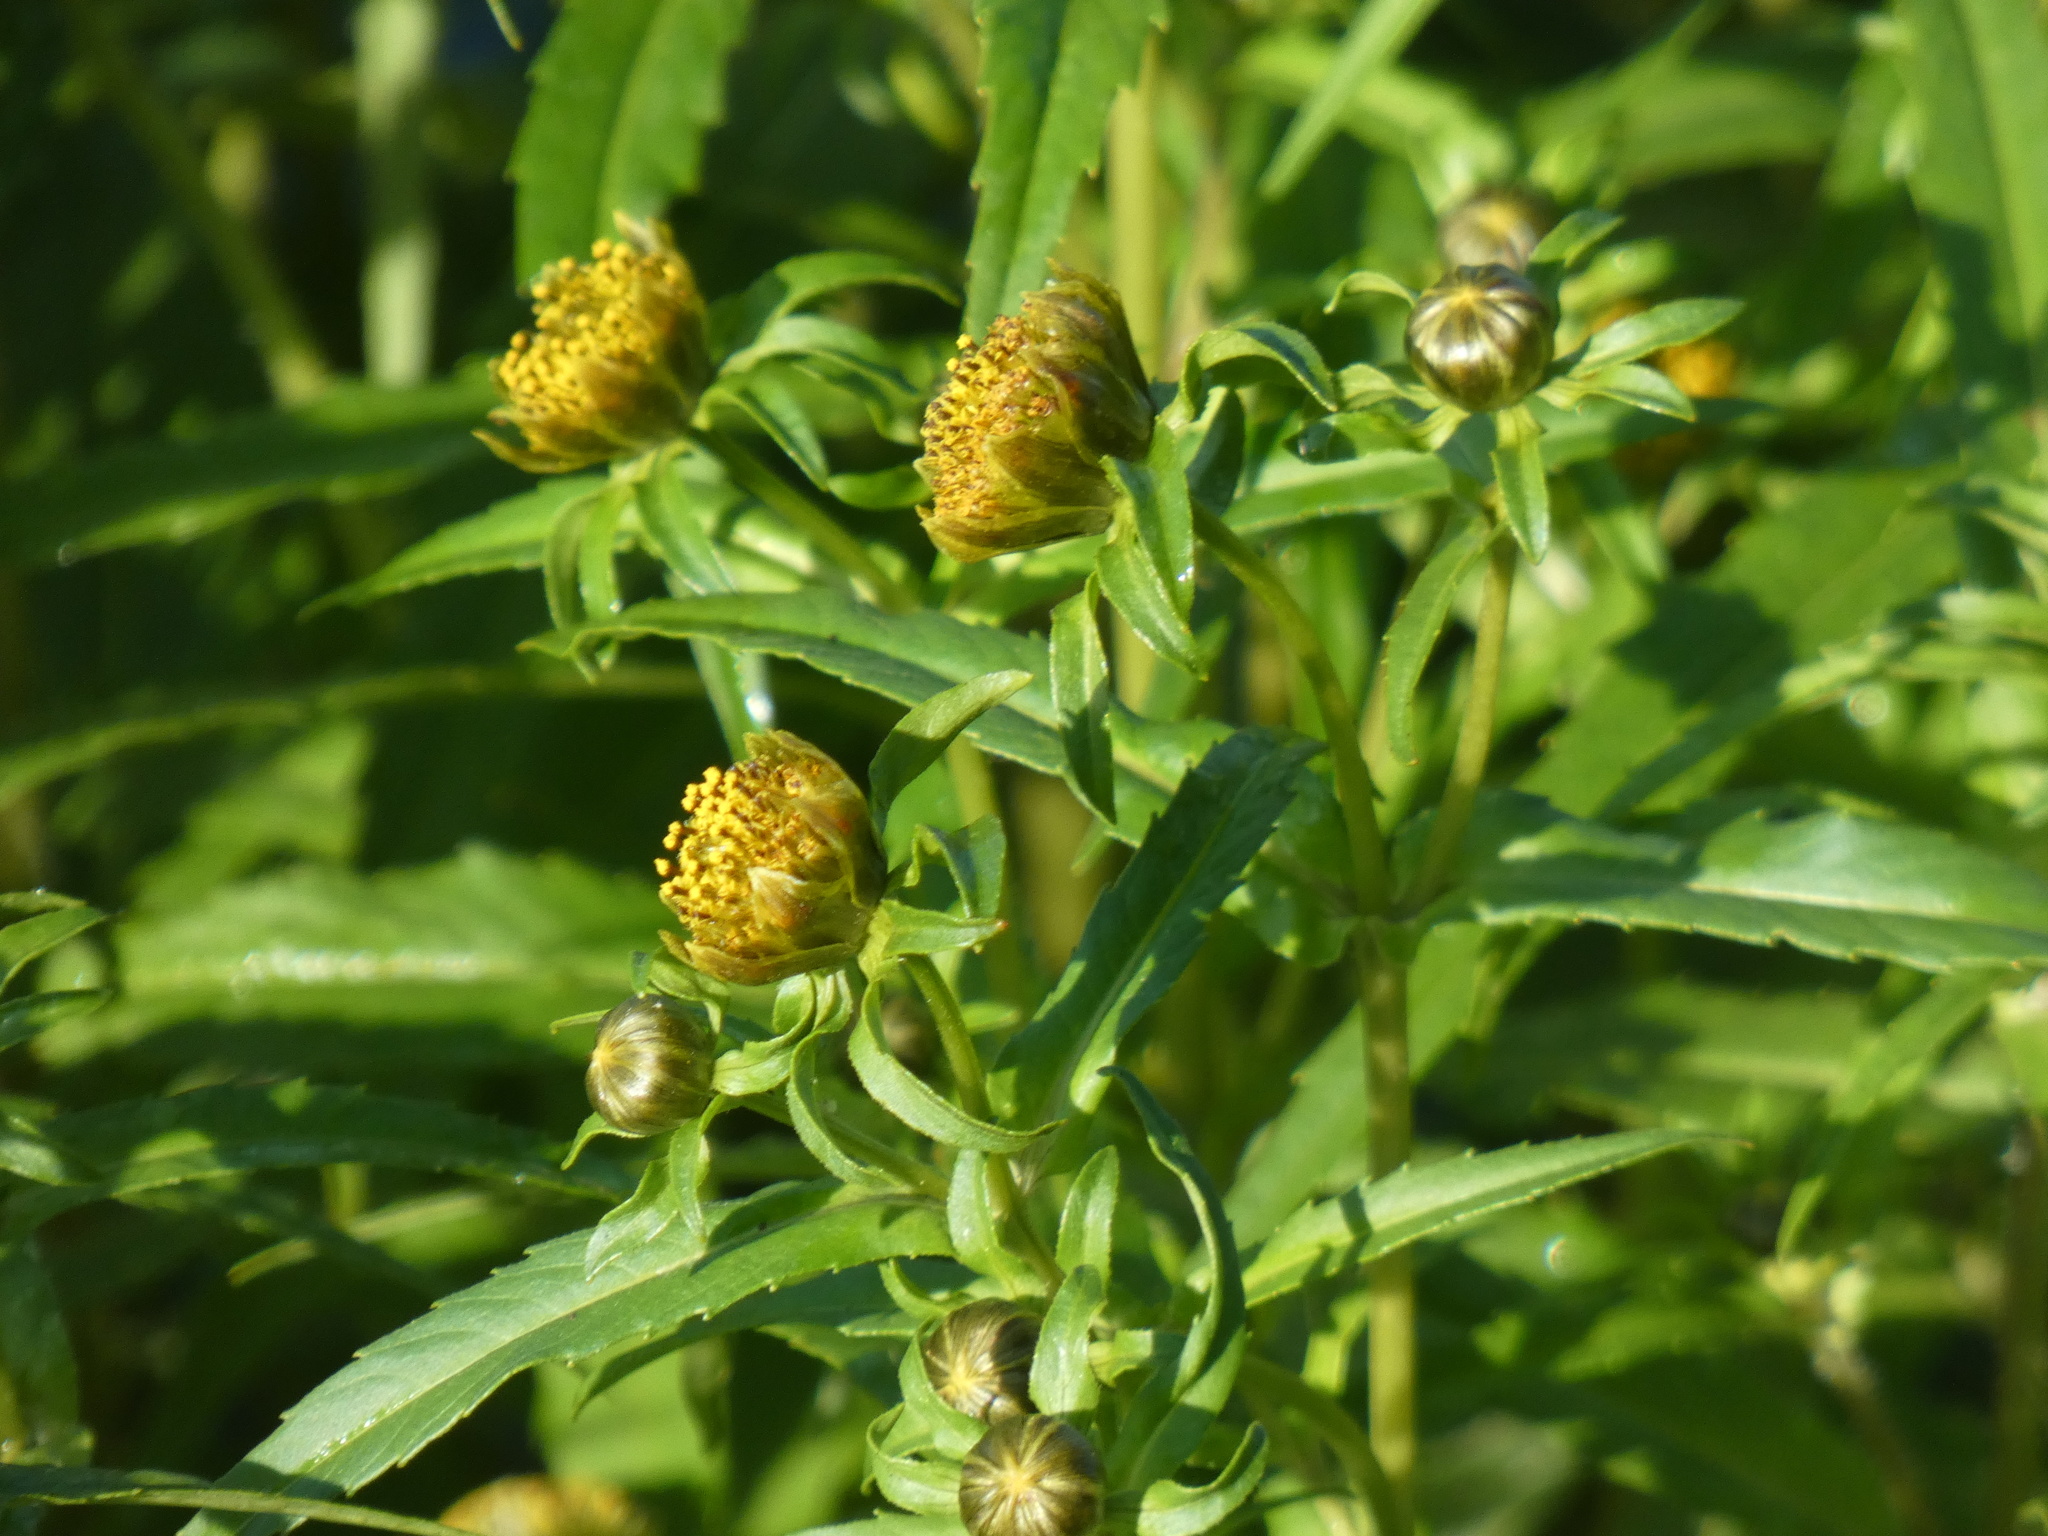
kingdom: Plantae
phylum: Tracheophyta
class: Magnoliopsida
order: Asterales
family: Asteraceae
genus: Bidens
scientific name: Bidens cernua
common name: Nodding bur-marigold
